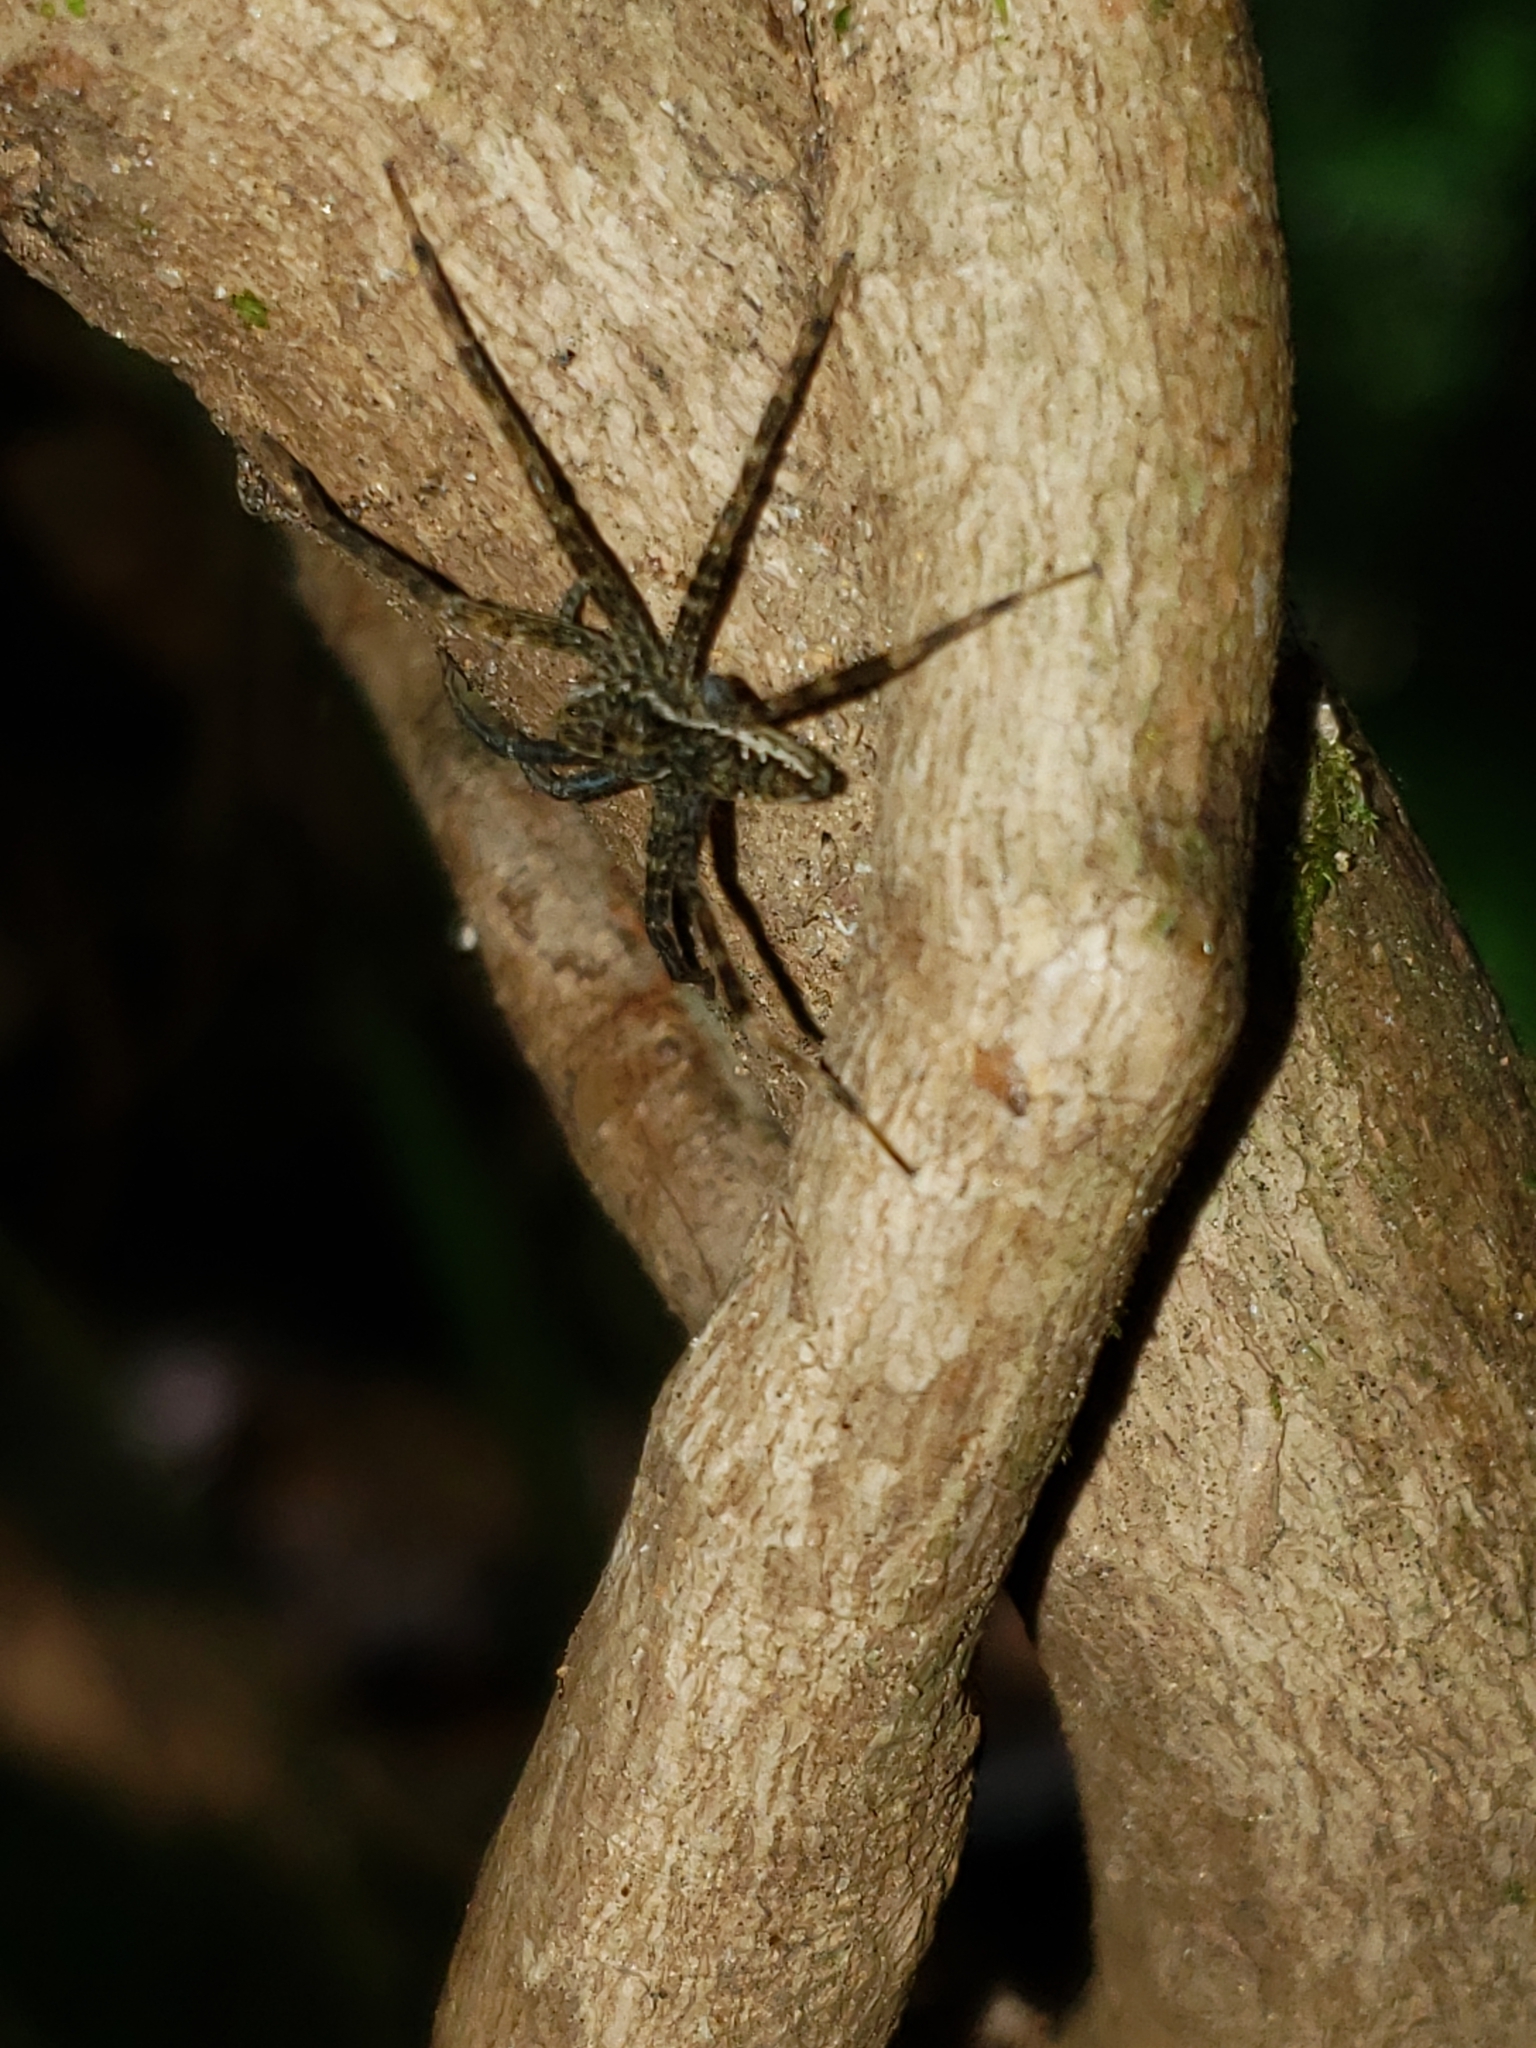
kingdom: Animalia
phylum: Arthropoda
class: Arachnida
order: Araneae
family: Pisauridae
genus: Dolomedes
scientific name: Dolomedes vittatus
